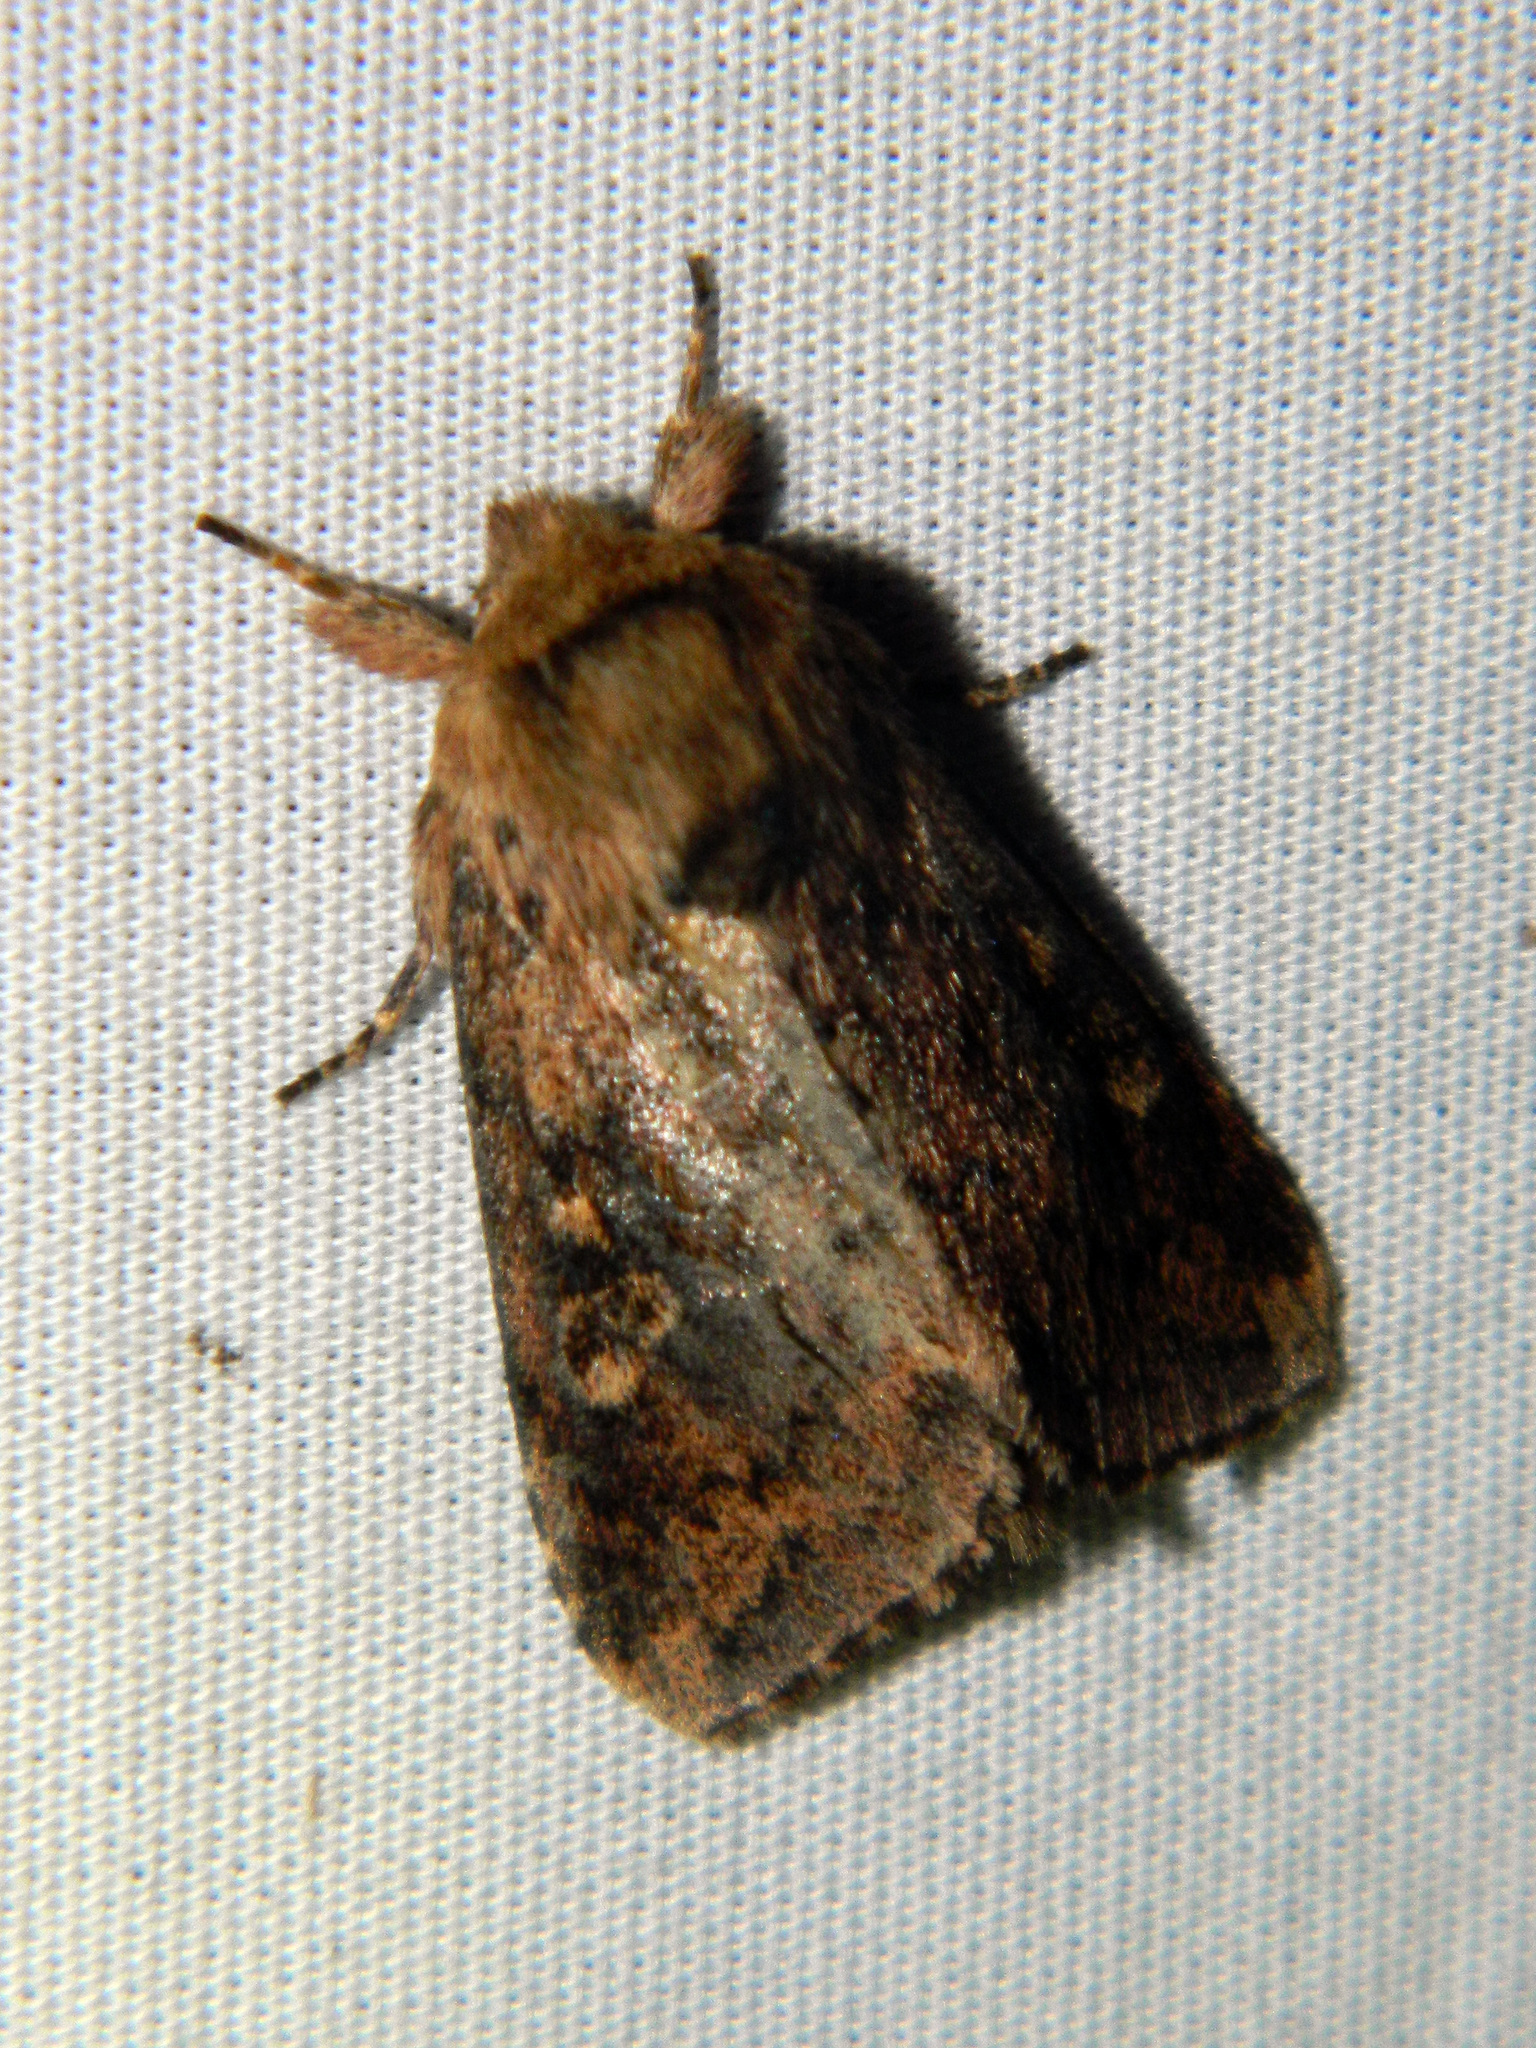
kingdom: Animalia
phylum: Arthropoda
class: Insecta
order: Lepidoptera
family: Noctuidae
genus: Bellura
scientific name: Bellura vulnifica
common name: Black-tailed diver moth
